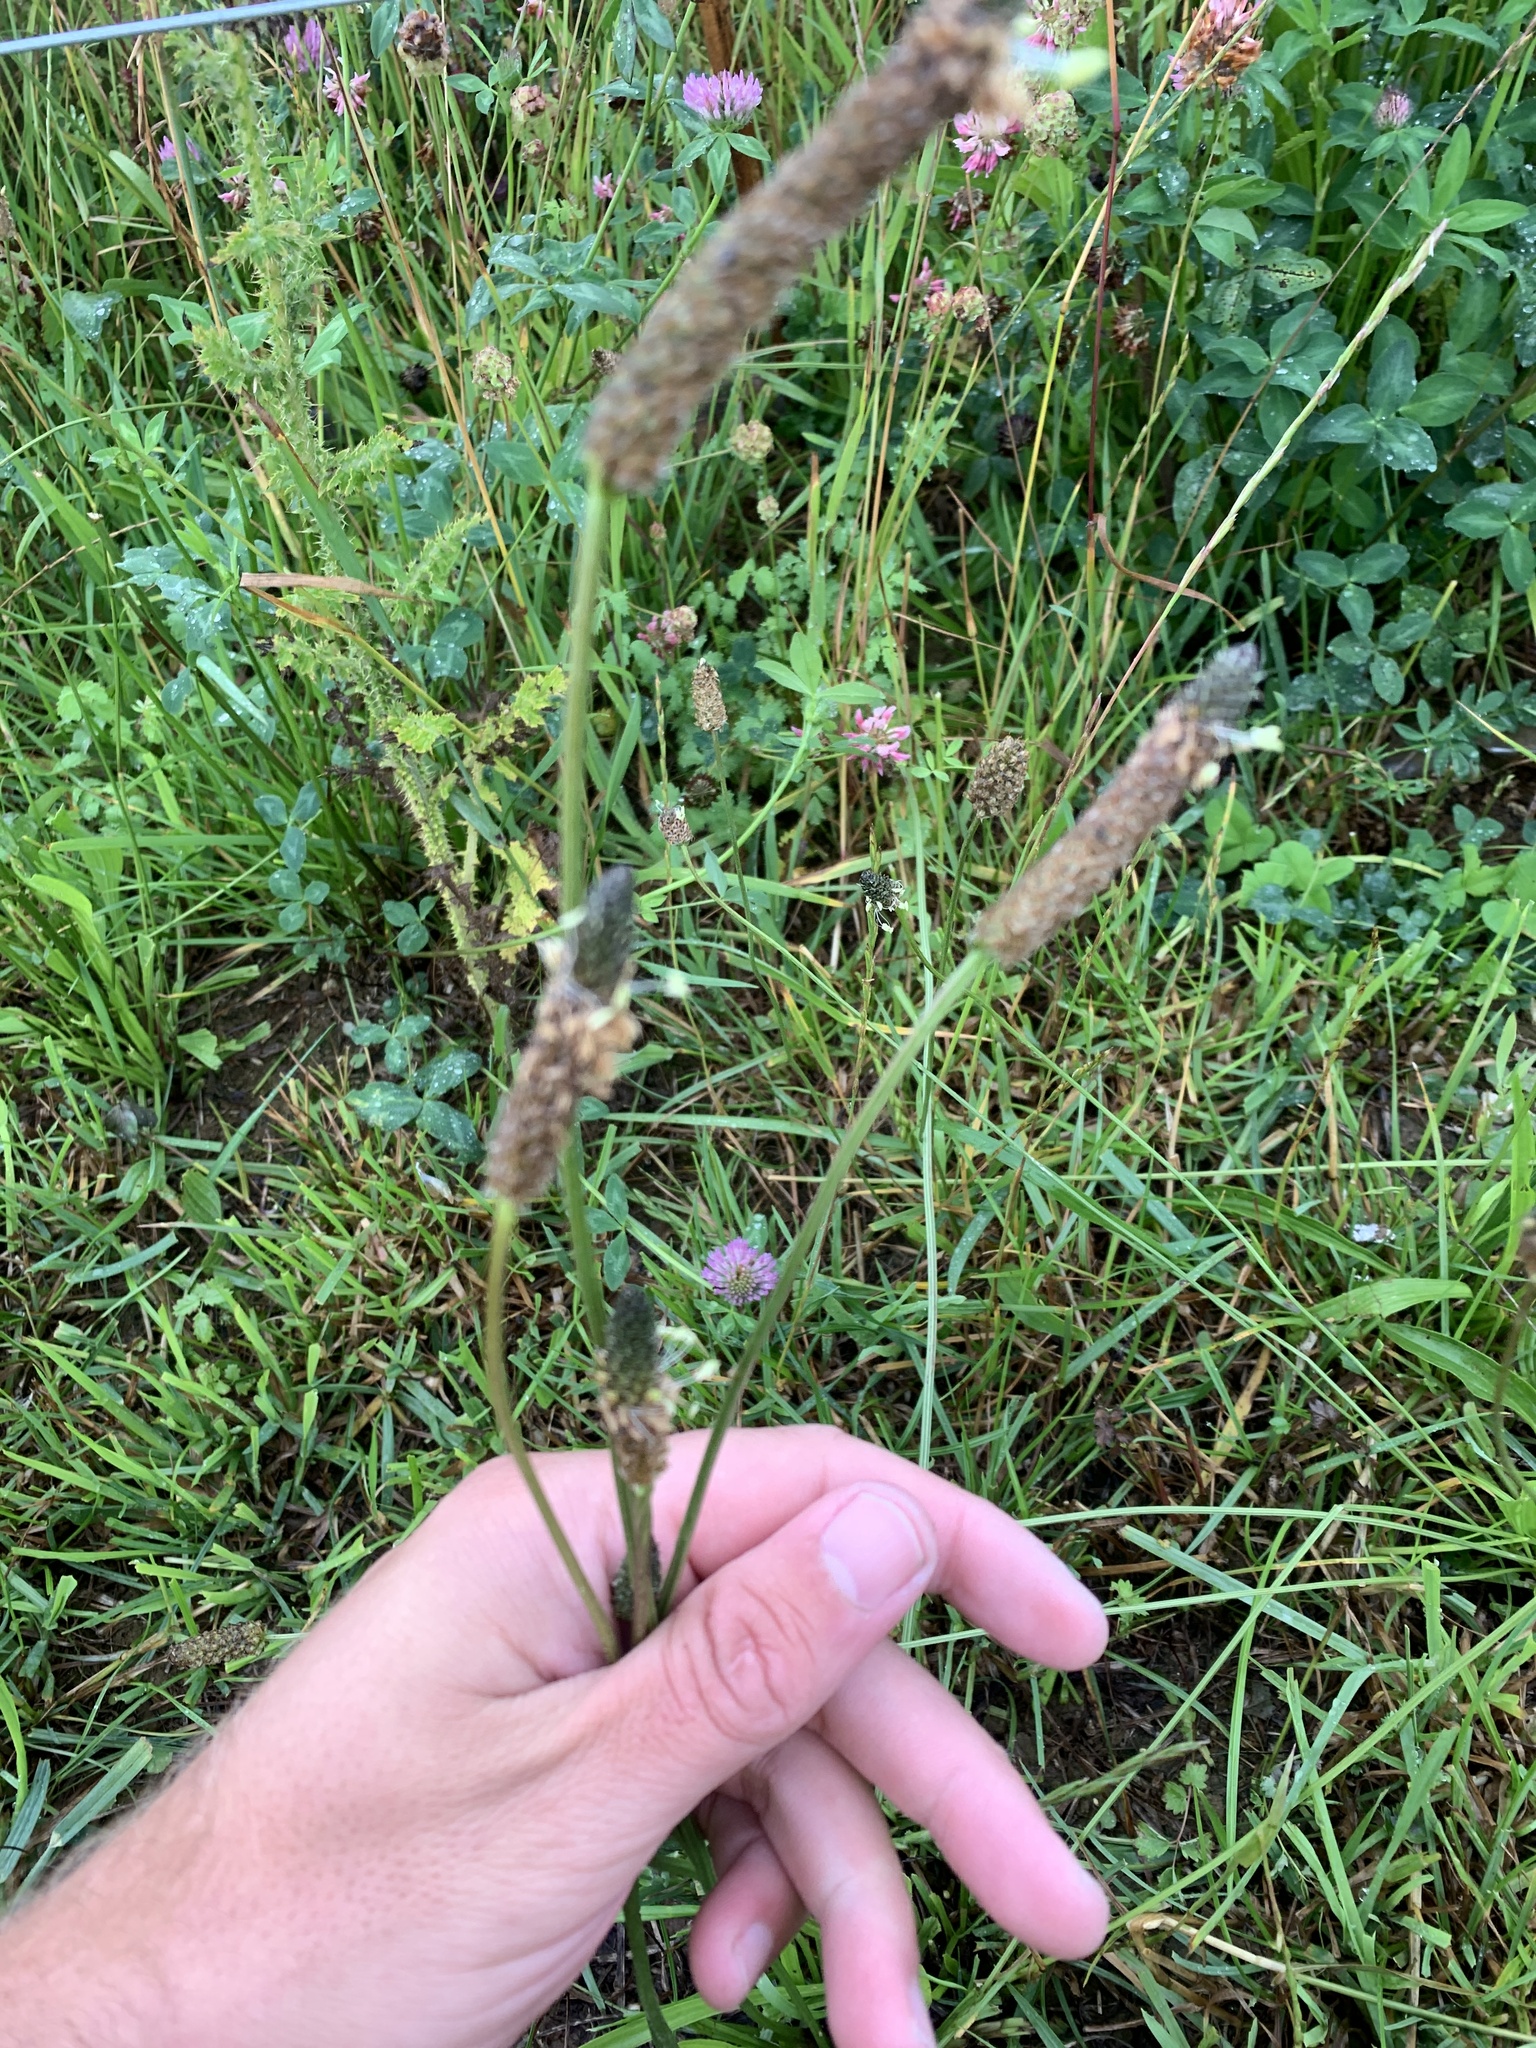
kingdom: Plantae
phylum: Tracheophyta
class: Magnoliopsida
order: Lamiales
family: Plantaginaceae
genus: Plantago
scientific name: Plantago lanceolata
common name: Ribwort plantain
